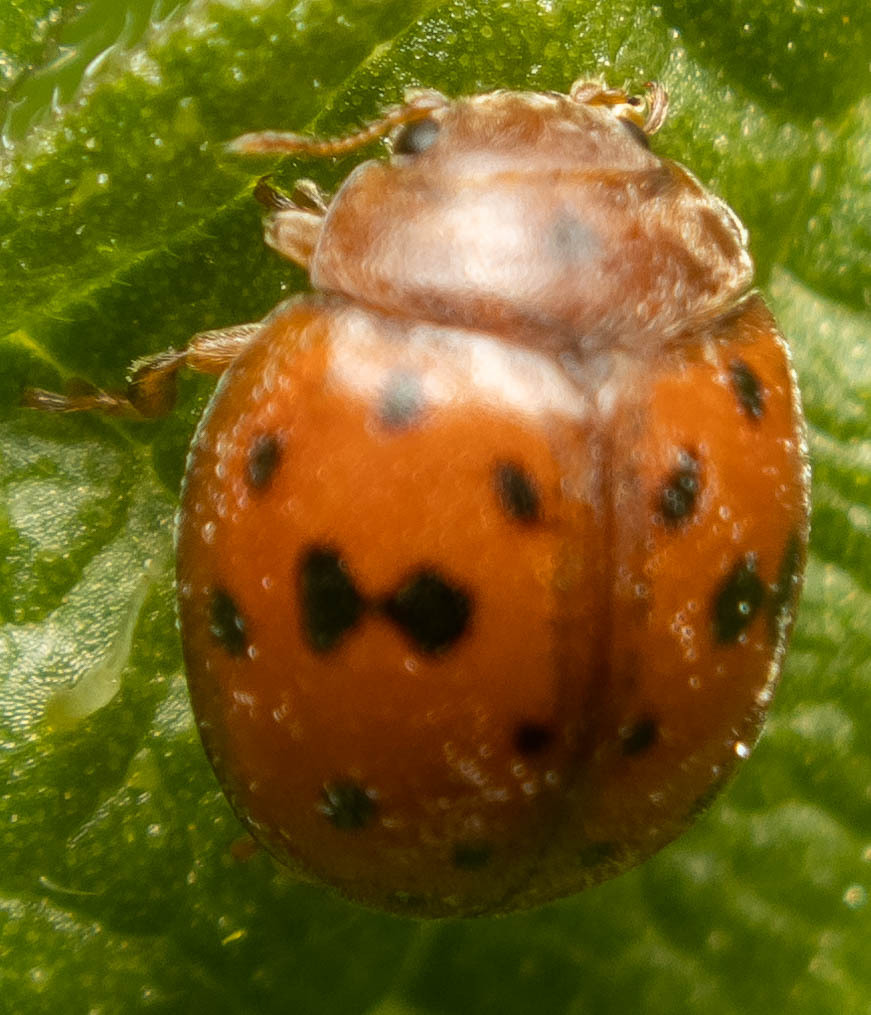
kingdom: Animalia
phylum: Arthropoda
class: Insecta
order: Coleoptera
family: Coccinellidae
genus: Subcoccinella
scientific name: Subcoccinella vigintiquatuorpunctata
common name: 24-spot ladybird
